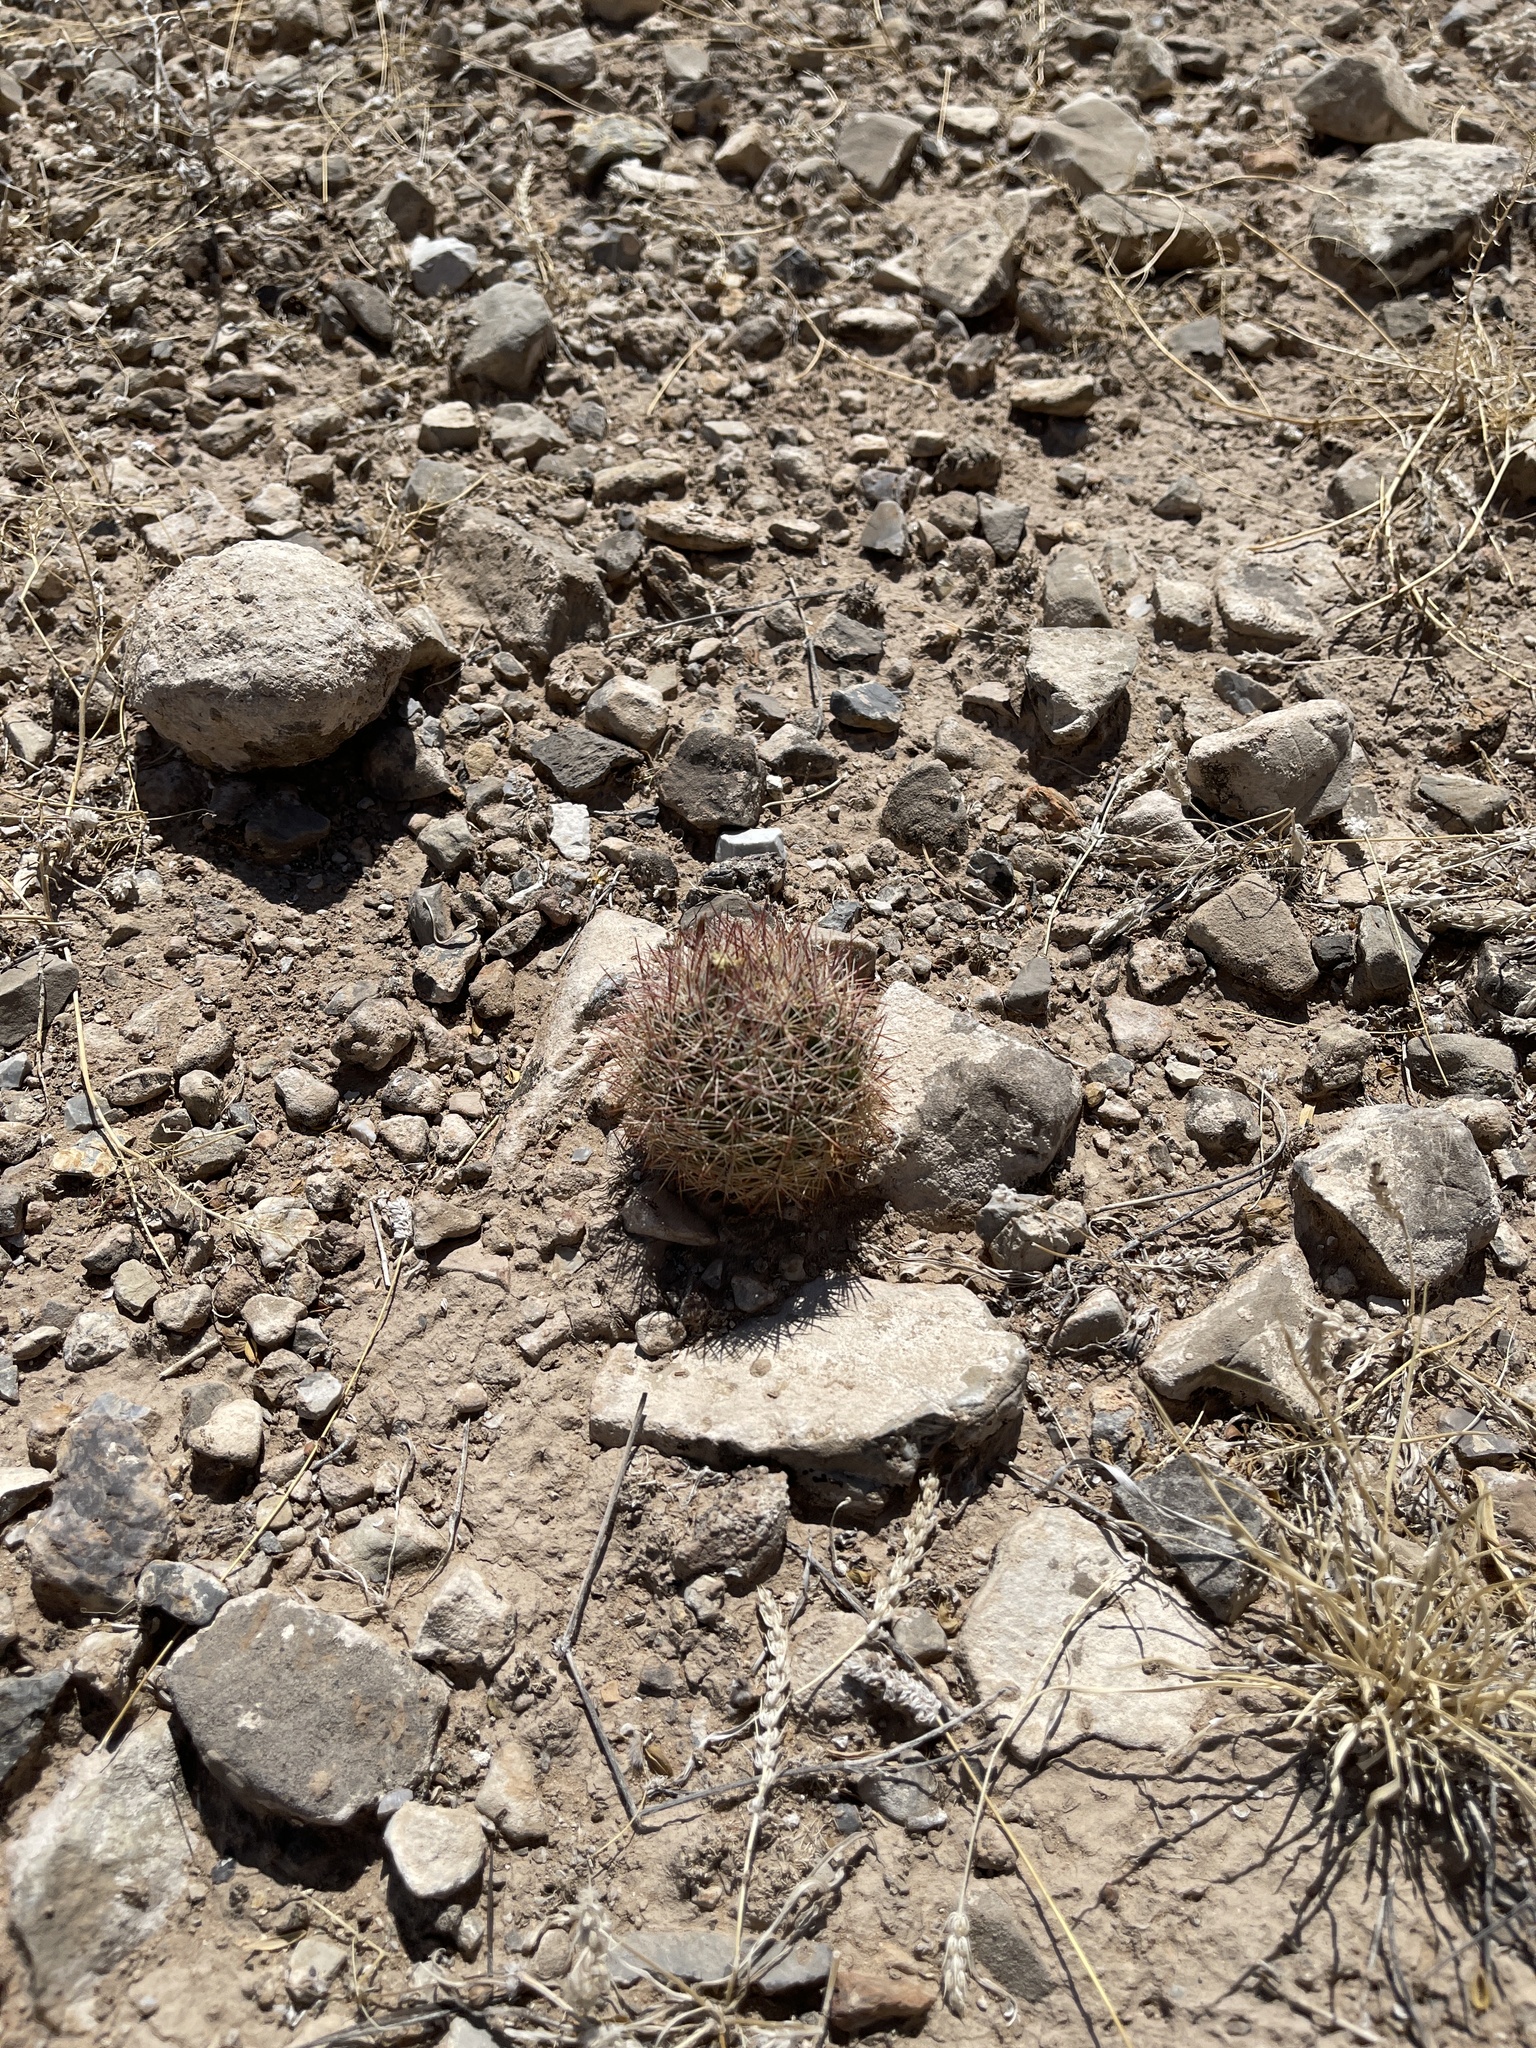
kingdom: Plantae
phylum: Tracheophyta
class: Magnoliopsida
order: Caryophyllales
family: Cactaceae
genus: Sclerocactus
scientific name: Sclerocactus intertextus
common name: White fish-hook cactus
